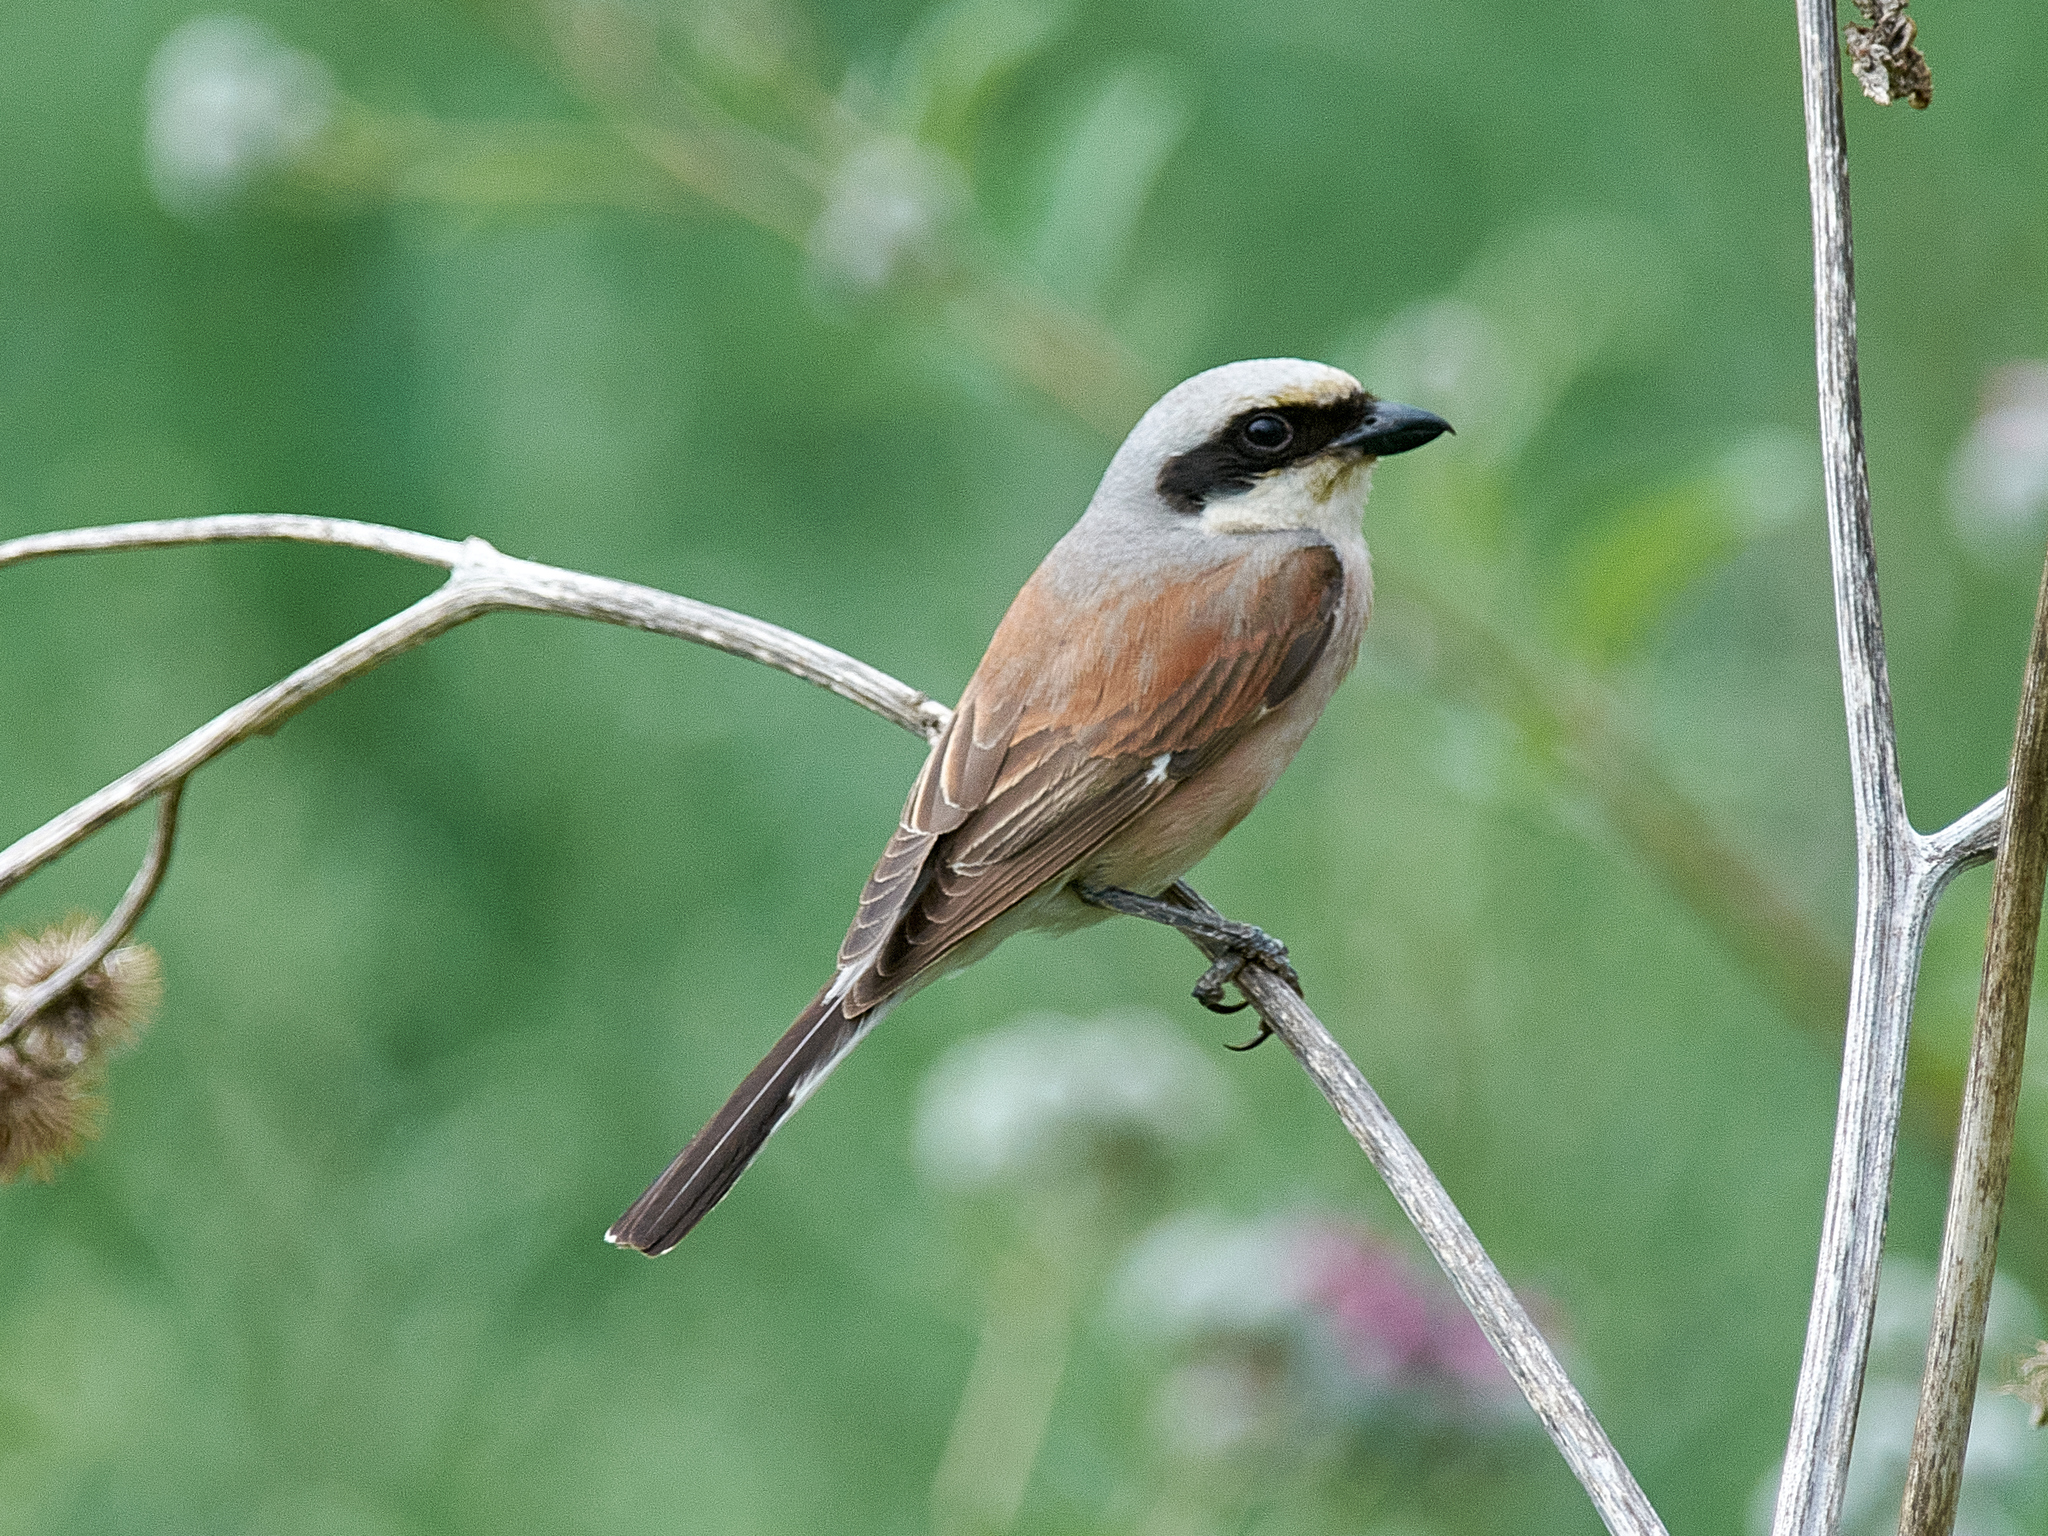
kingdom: Animalia
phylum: Chordata
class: Aves
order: Passeriformes
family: Laniidae
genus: Lanius
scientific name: Lanius collurio
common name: Red-backed shrike
